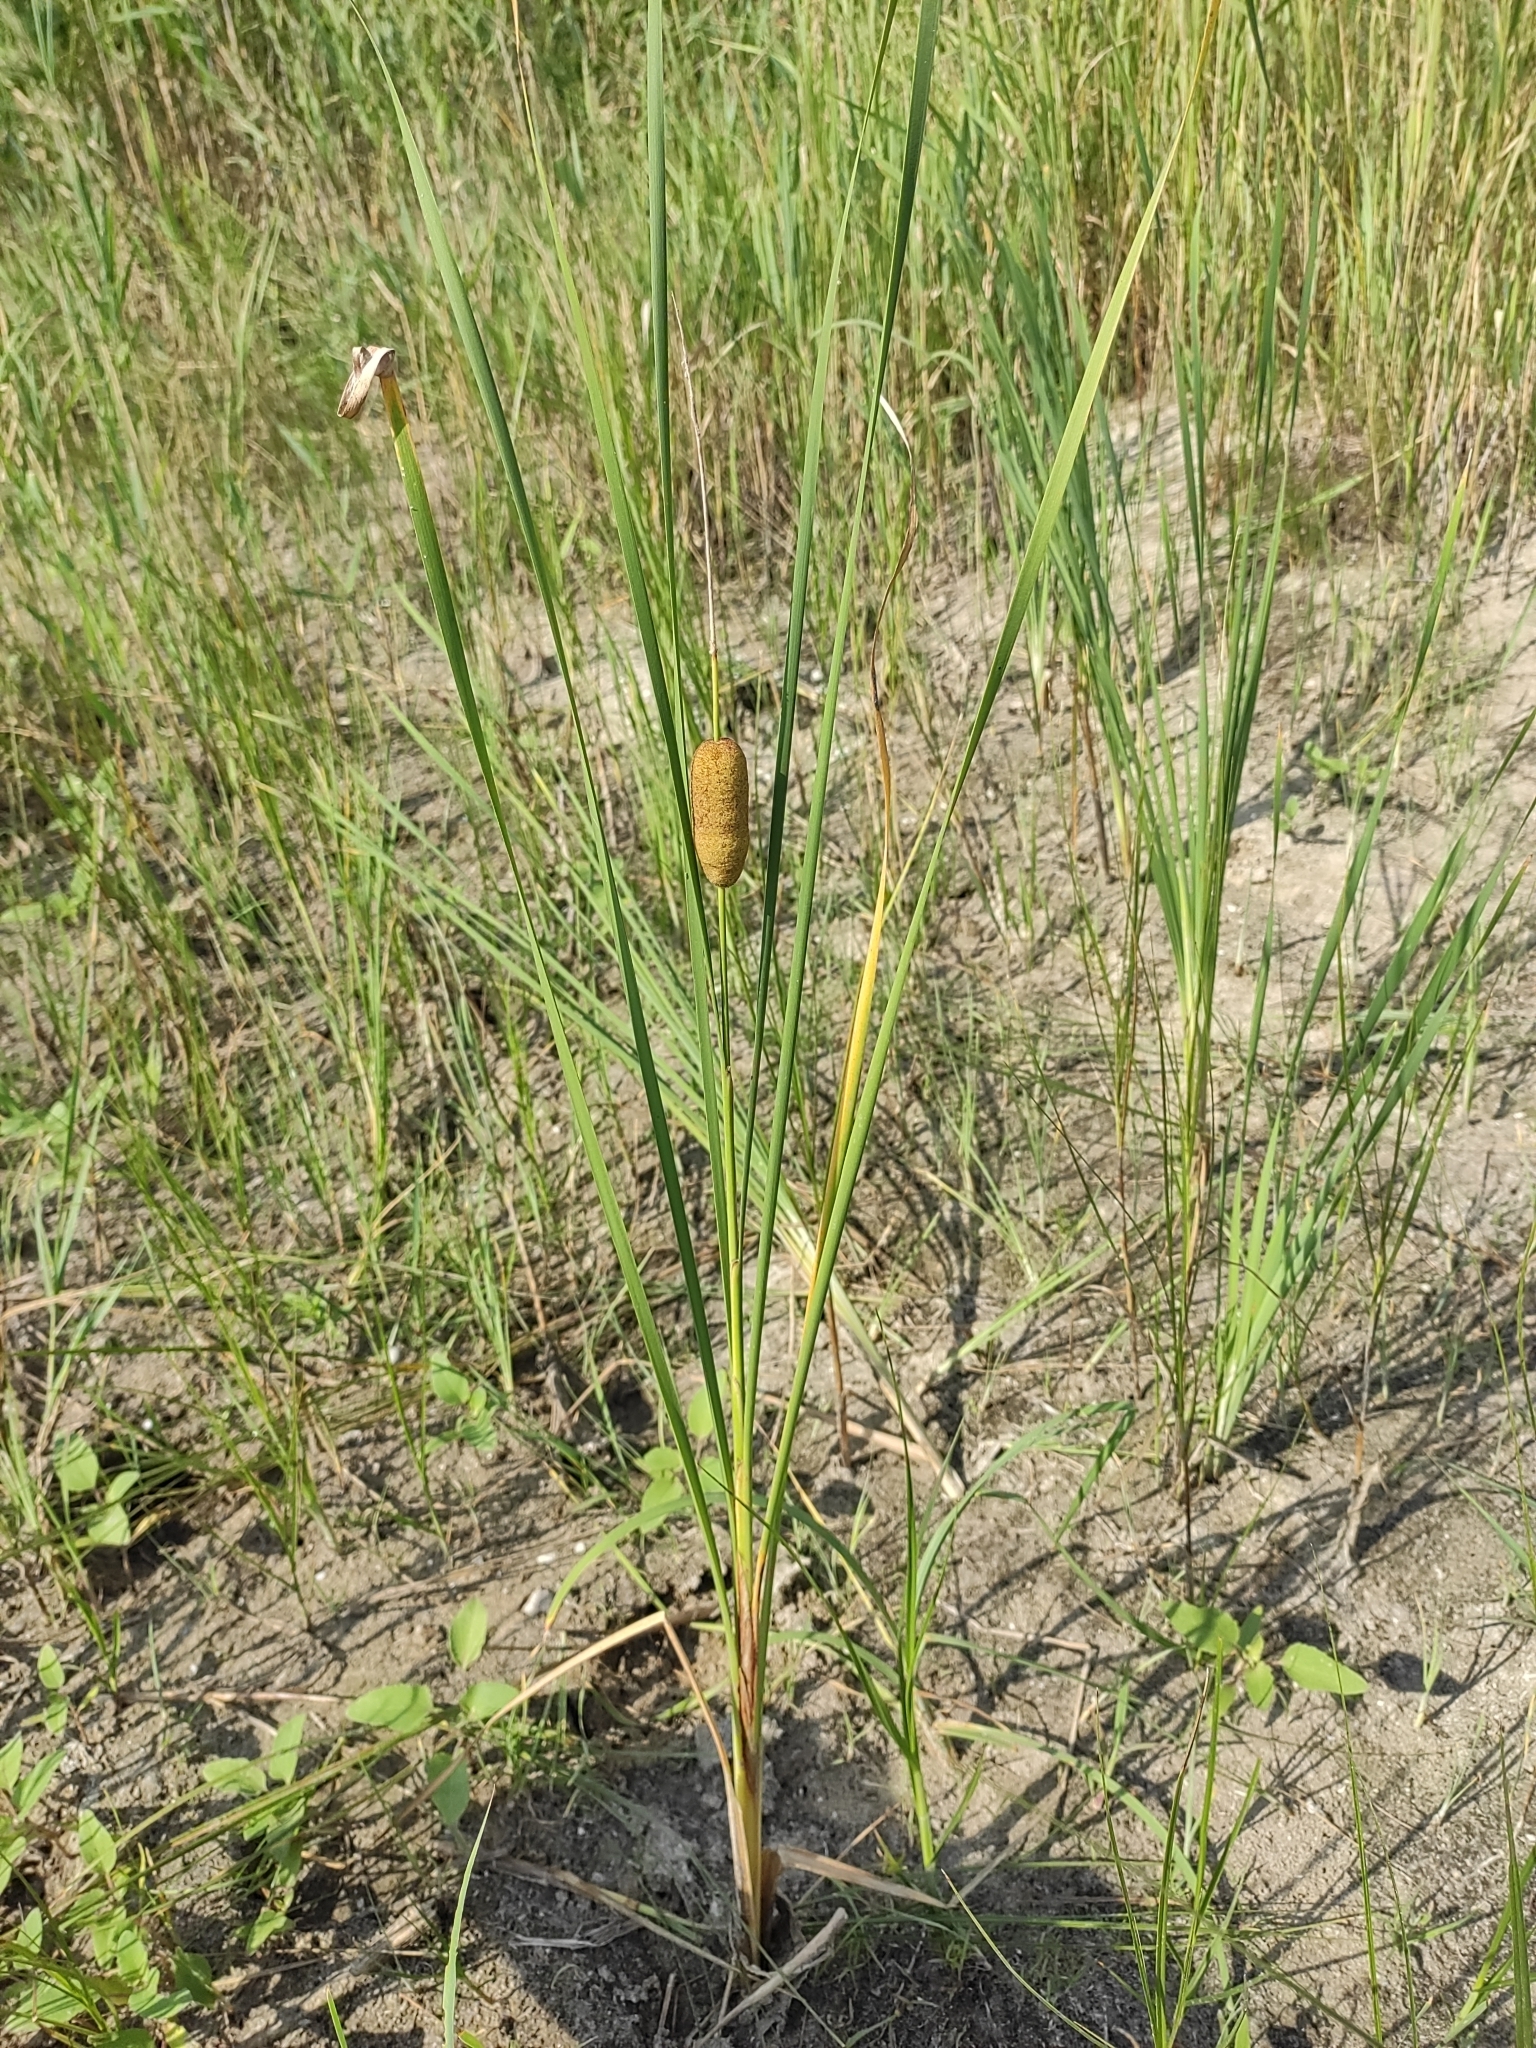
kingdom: Plantae
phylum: Tracheophyta
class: Liliopsida
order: Poales
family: Typhaceae
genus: Typha
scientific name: Typha laxmannii
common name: Laxman’s bulrush
